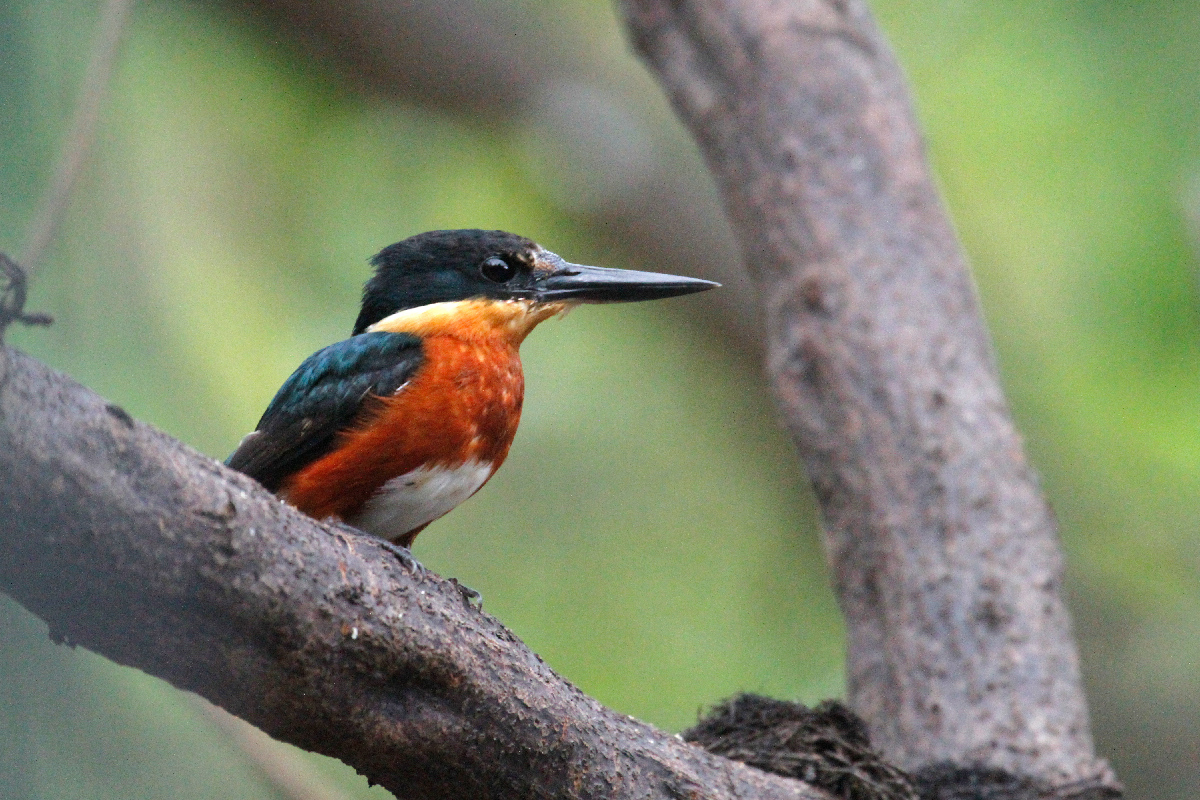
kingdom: Animalia
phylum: Chordata
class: Aves
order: Coraciiformes
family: Alcedinidae
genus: Chloroceryle
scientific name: Chloroceryle aenea
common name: American pygmy kingfisher
